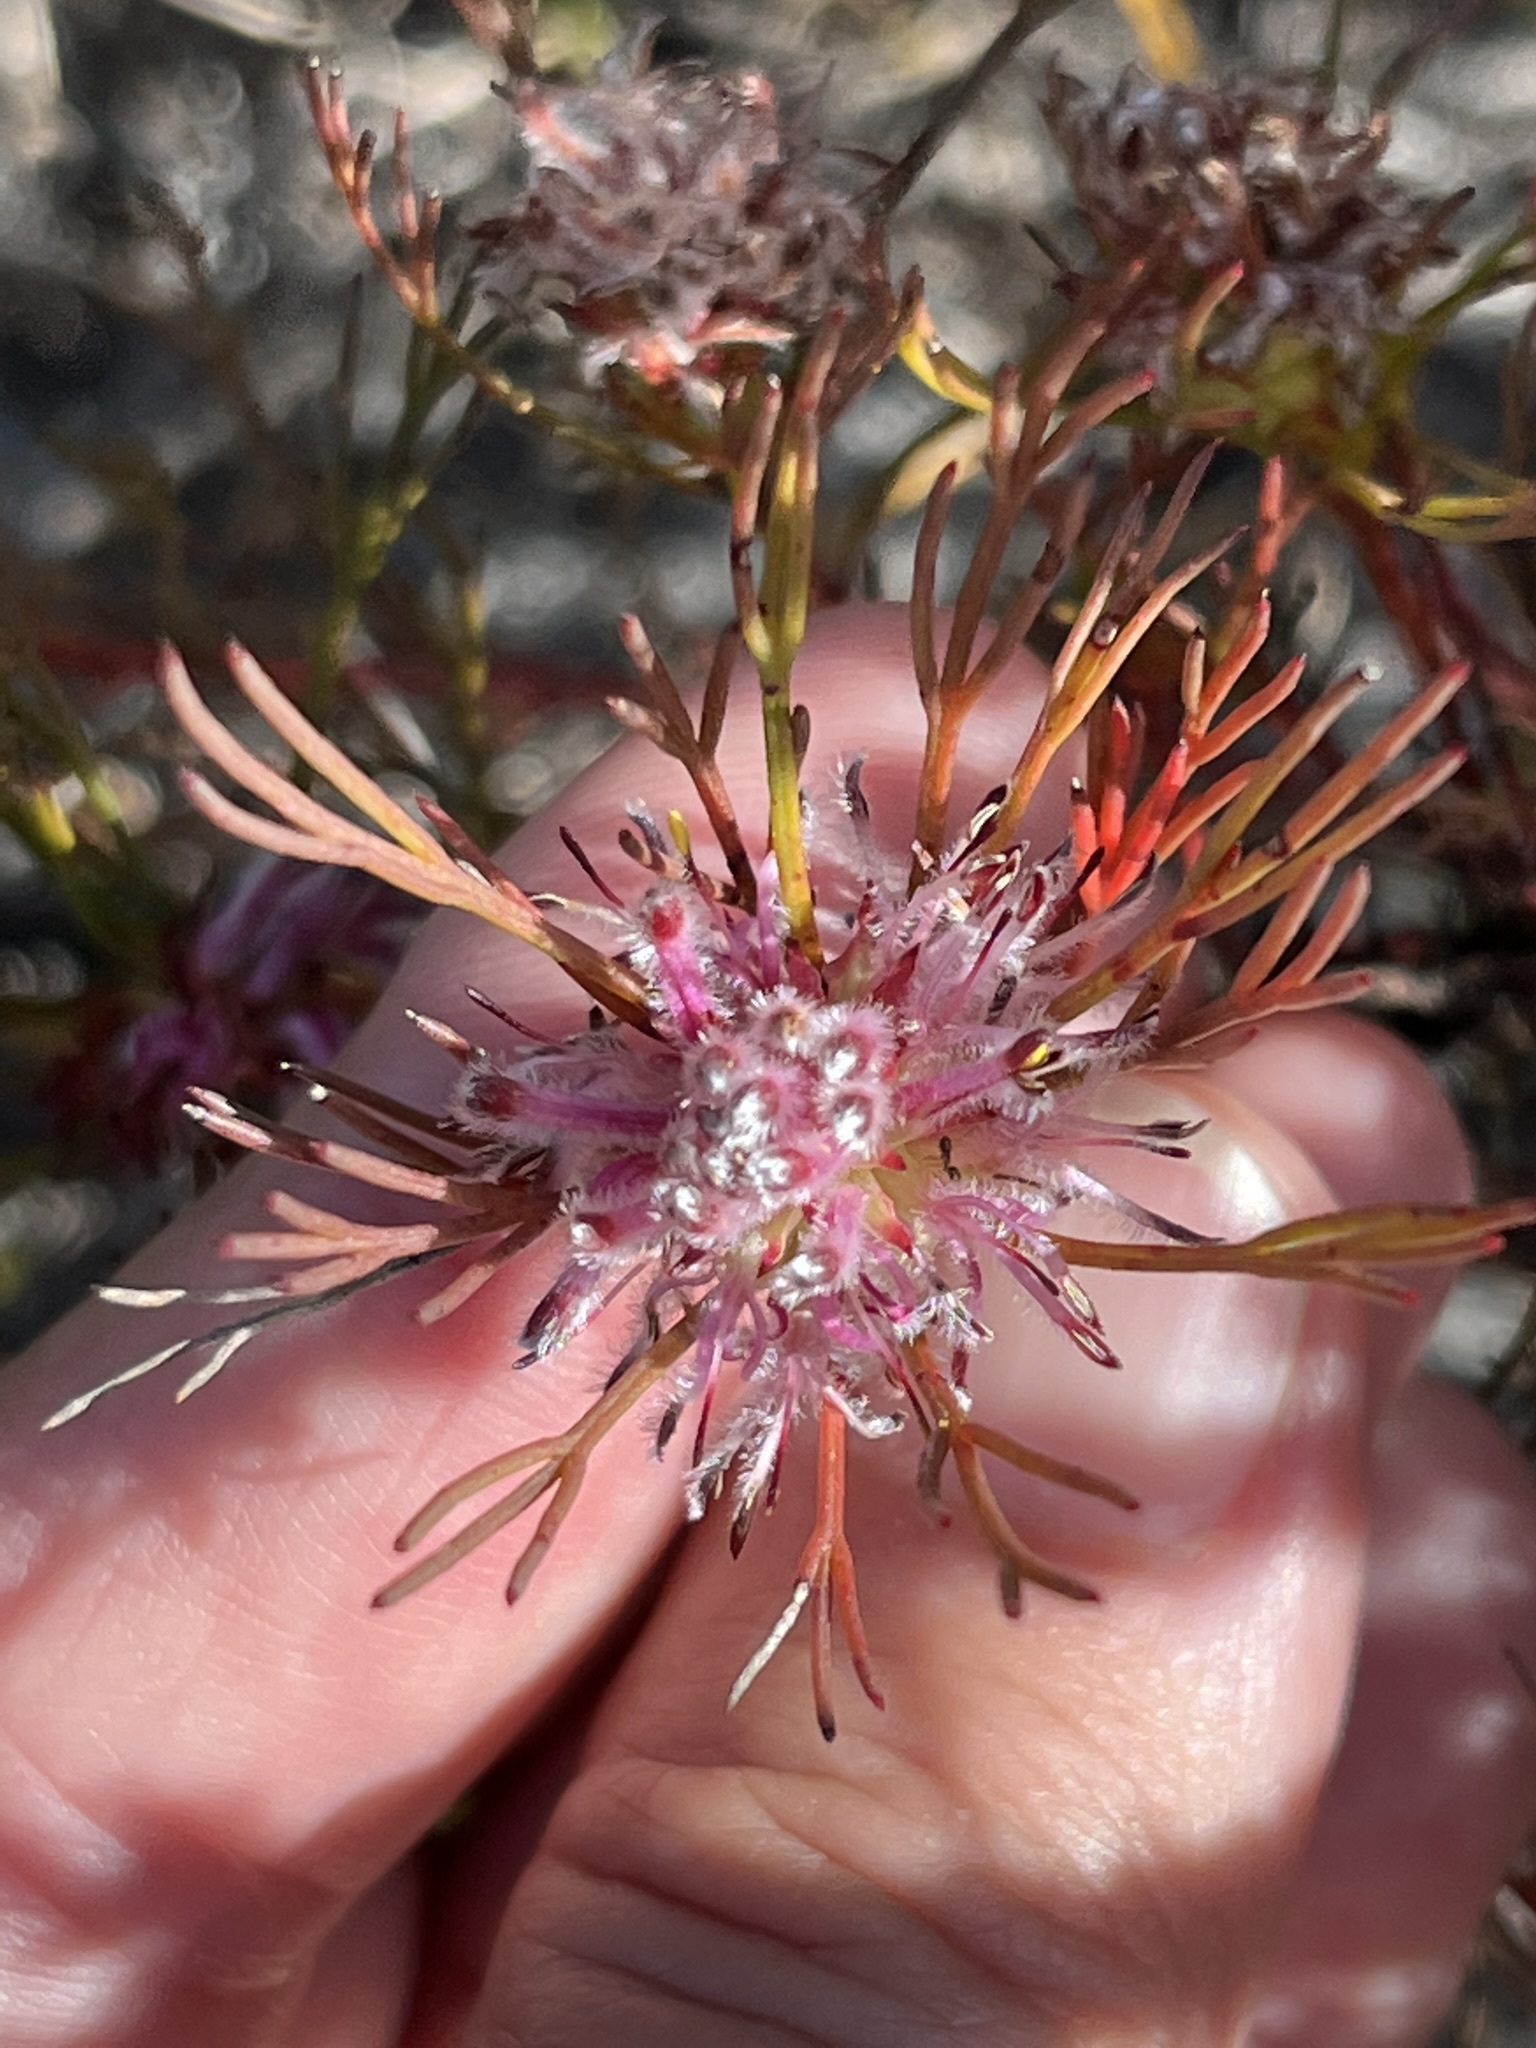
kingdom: Plantae
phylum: Tracheophyta
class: Magnoliopsida
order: Proteales
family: Proteaceae
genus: Serruria
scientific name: Serruria nervosa
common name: Fluted spiderhead
